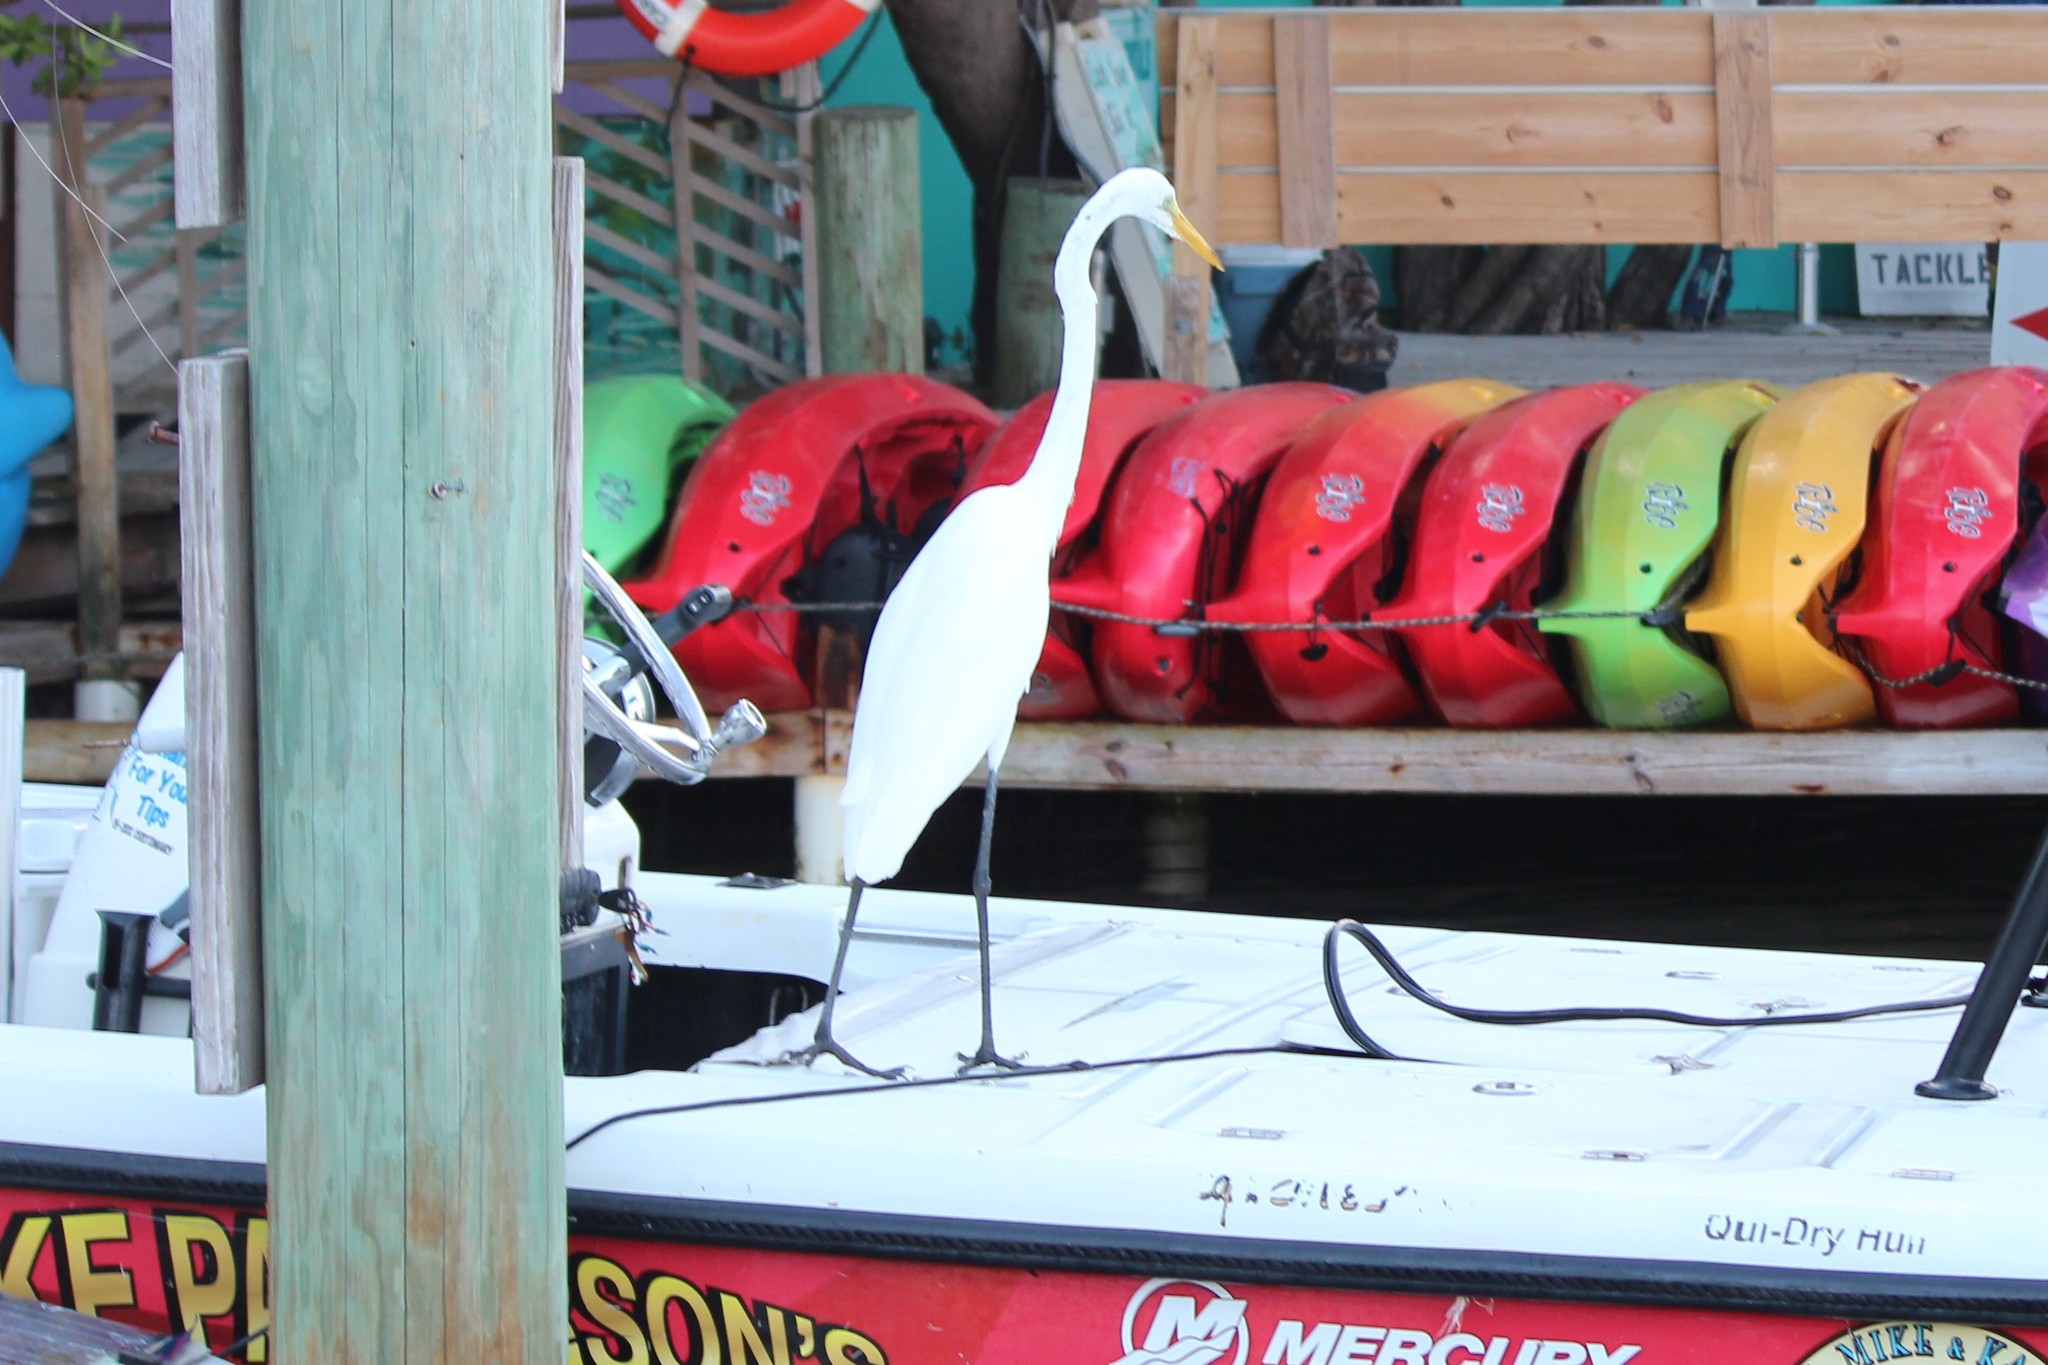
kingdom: Animalia
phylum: Chordata
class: Aves
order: Pelecaniformes
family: Ardeidae
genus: Ardea
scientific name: Ardea alba
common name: Great egret
